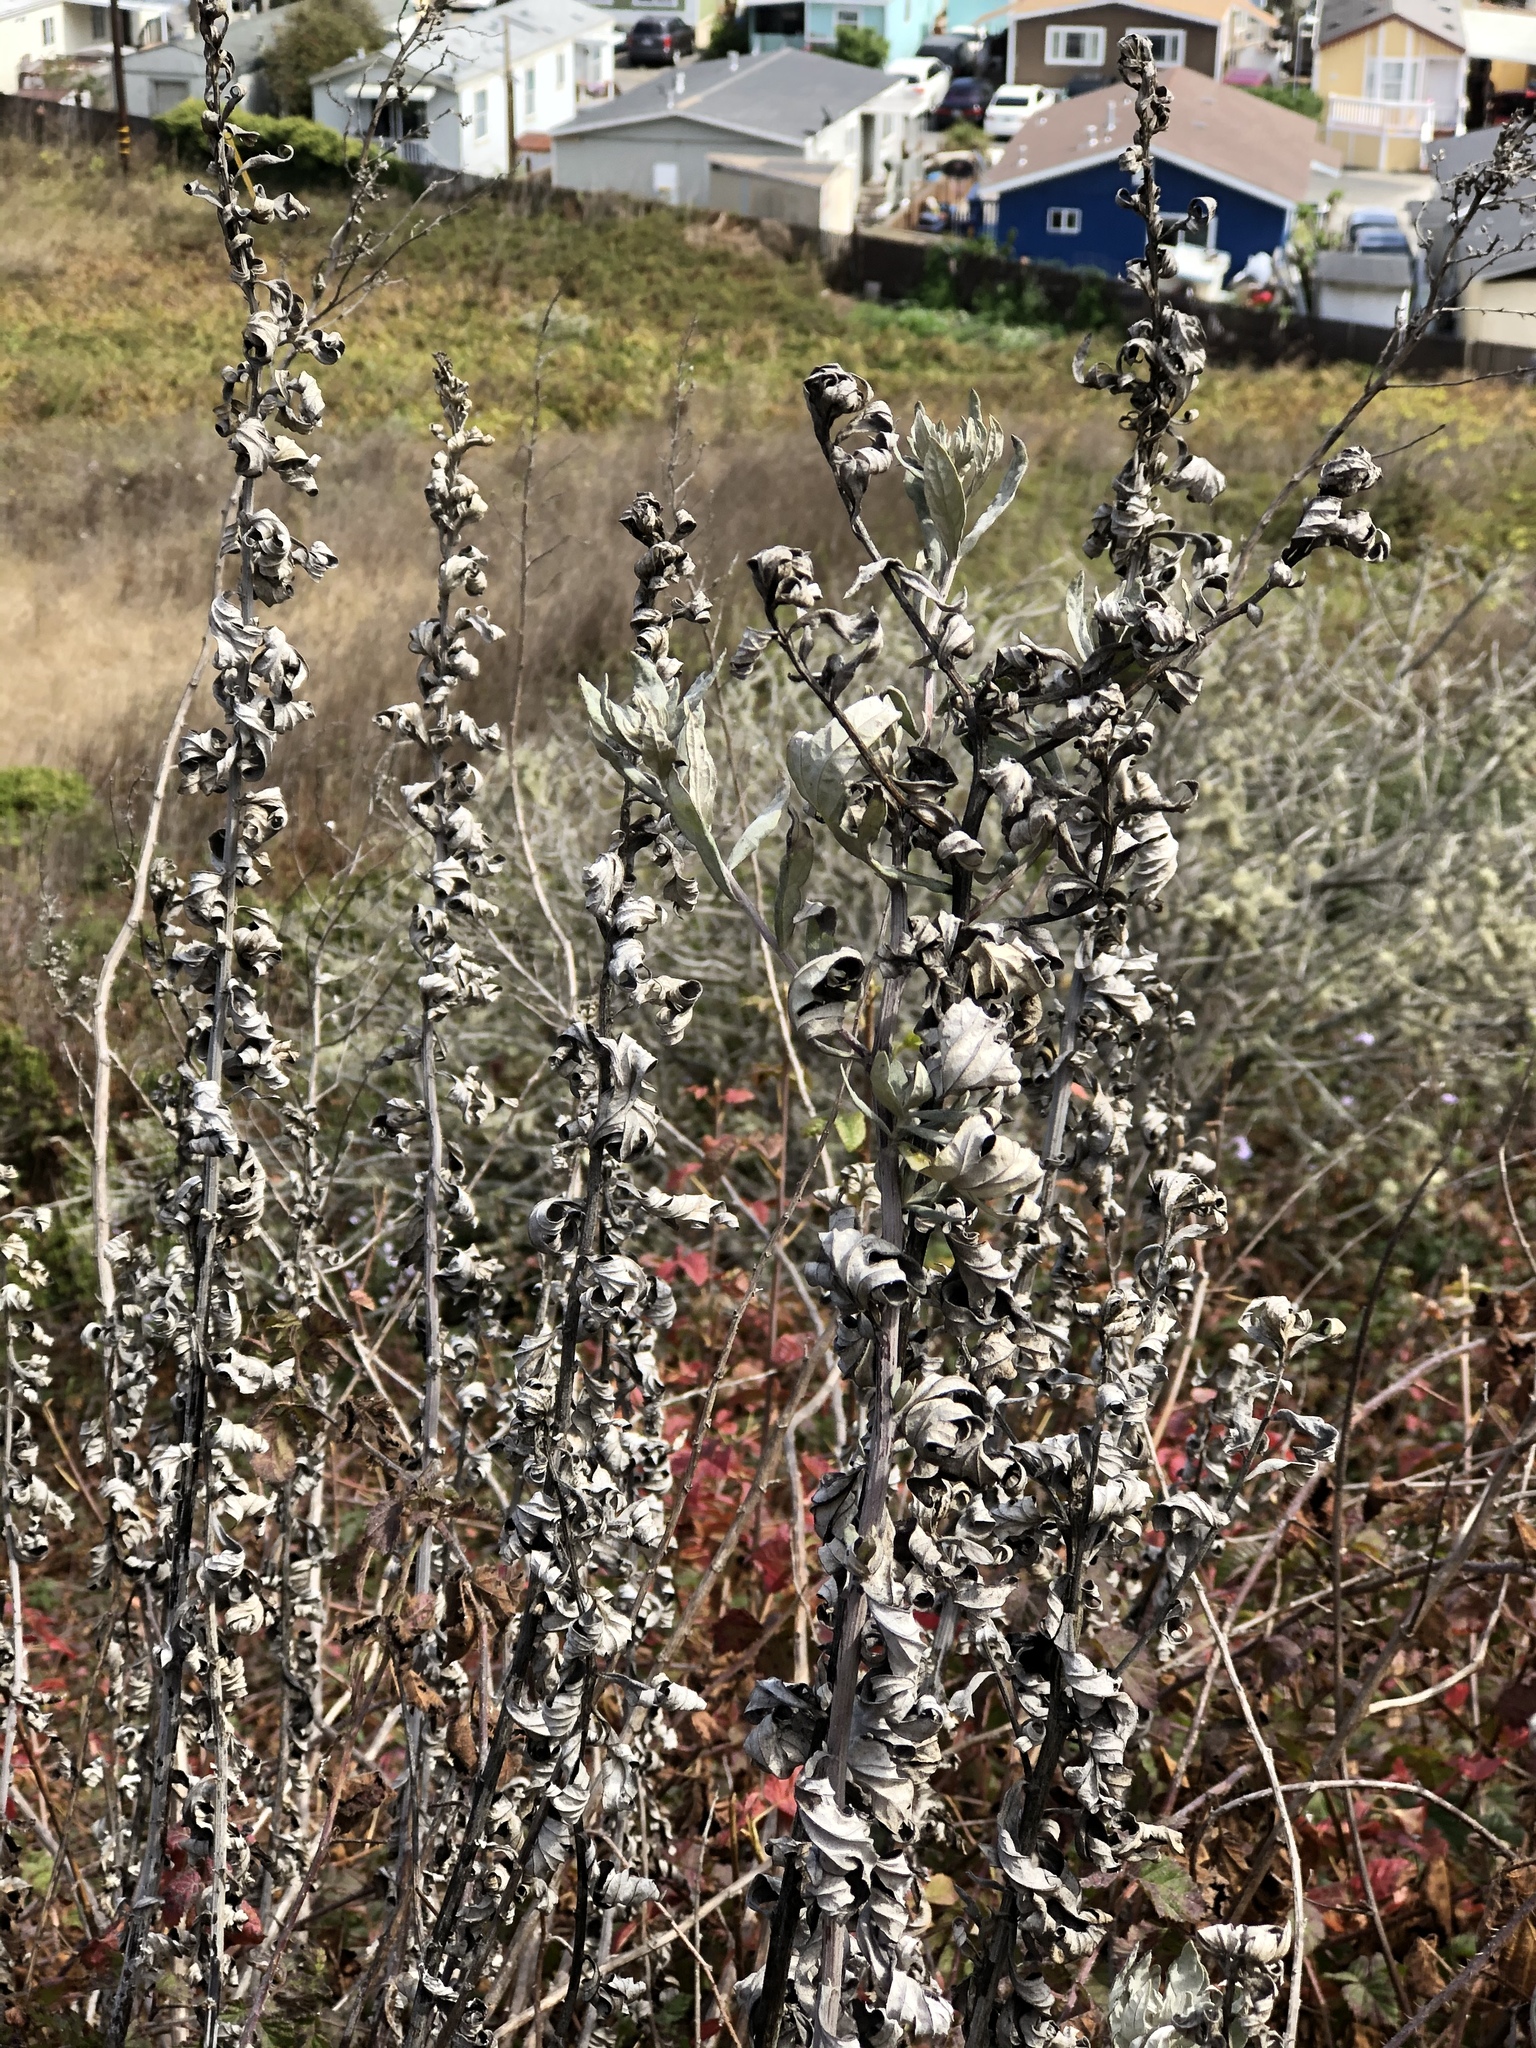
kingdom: Plantae
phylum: Tracheophyta
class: Magnoliopsida
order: Asterales
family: Asteraceae
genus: Artemisia
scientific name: Artemisia douglasiana
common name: Northwest mugwort
